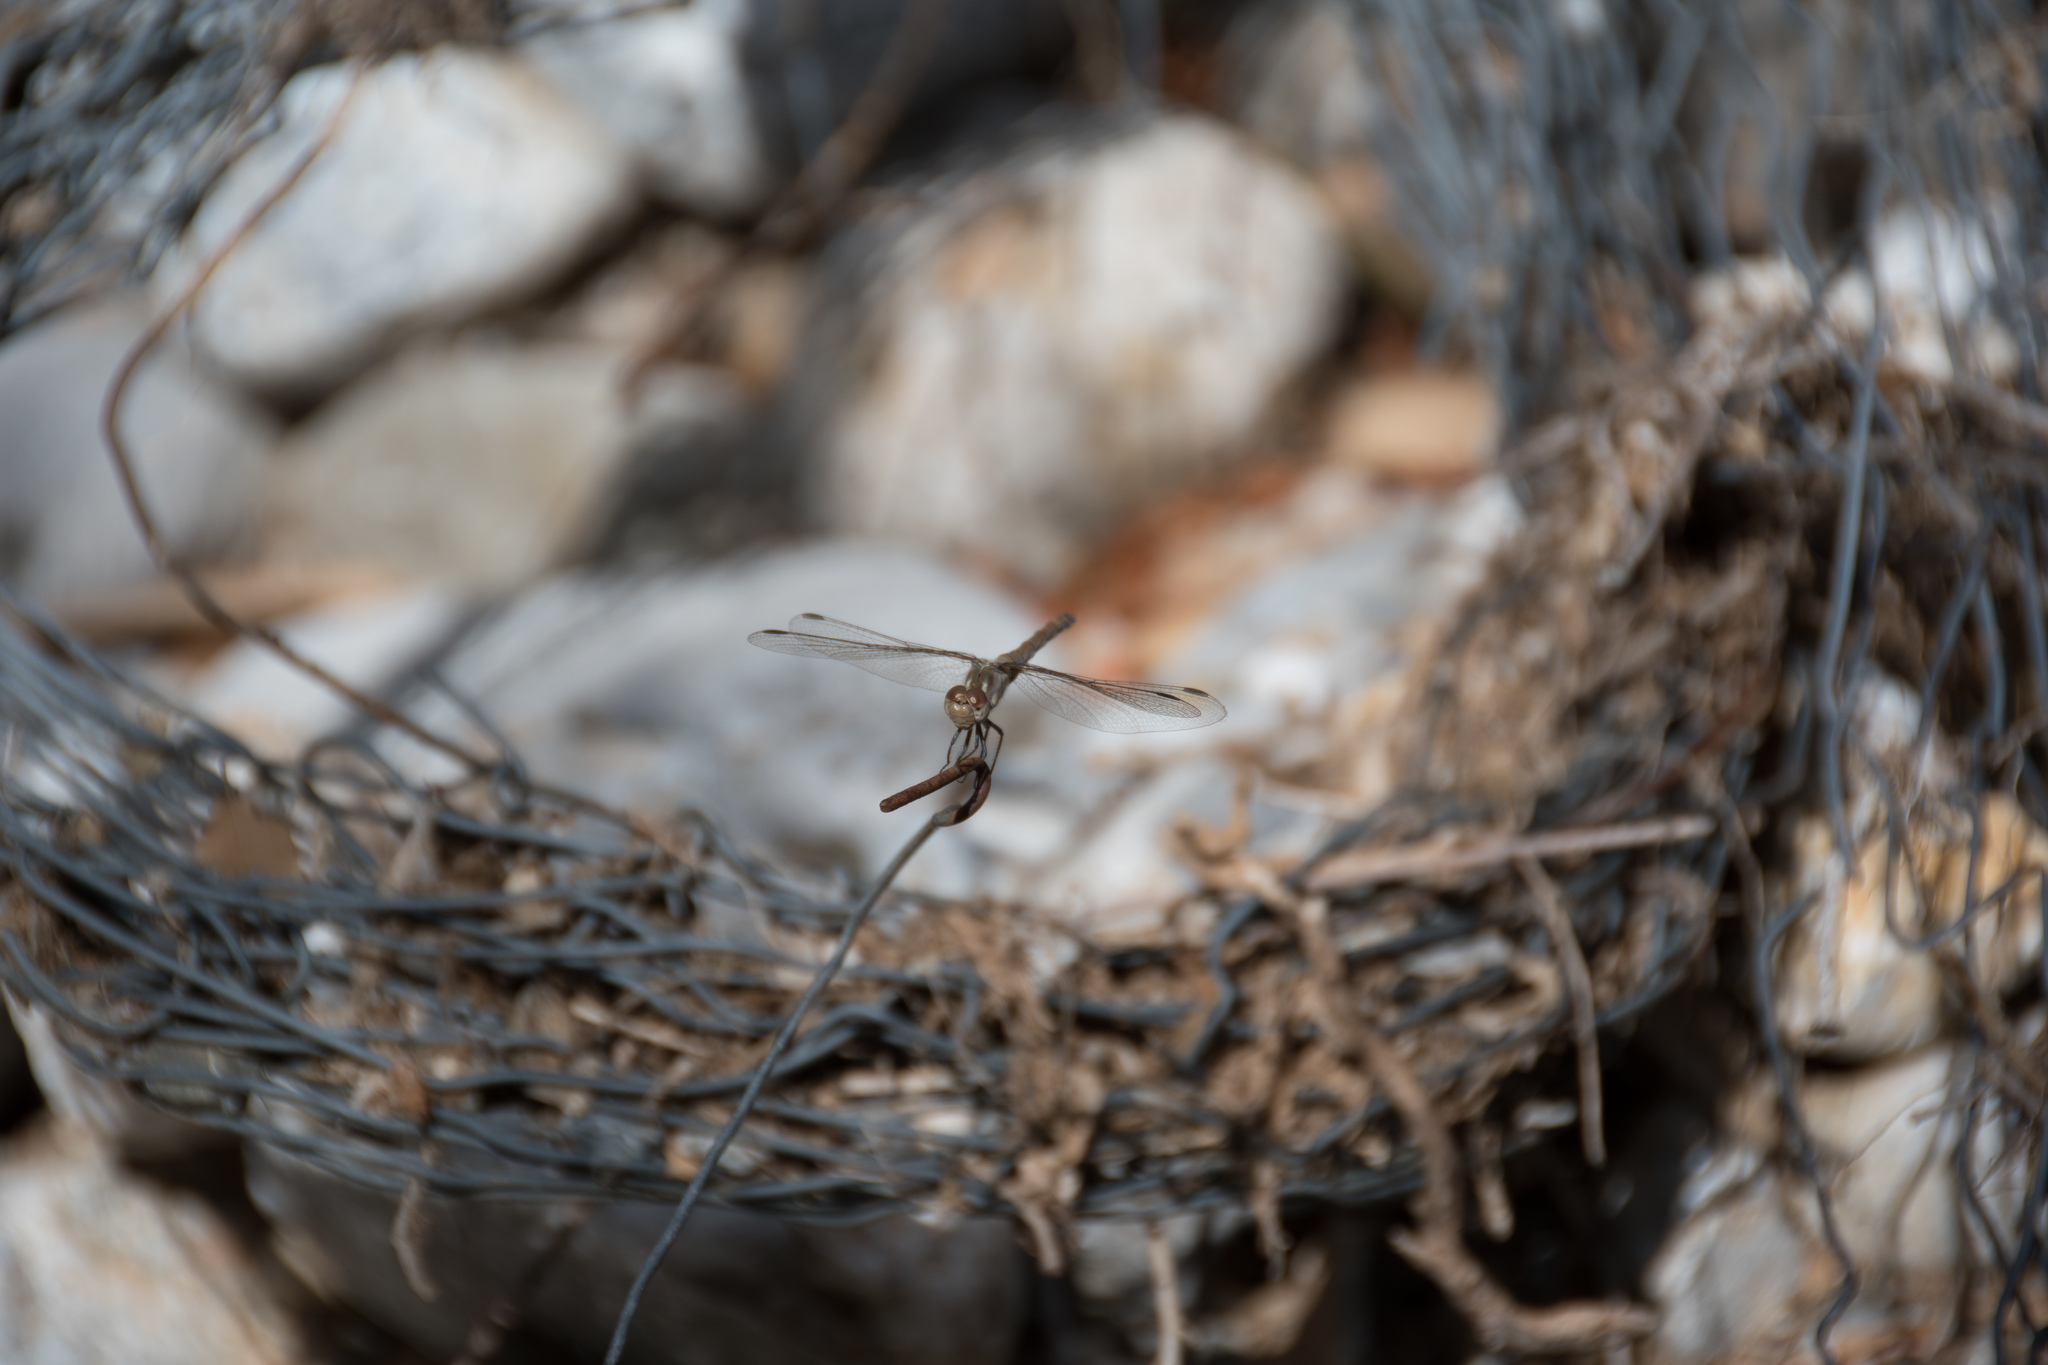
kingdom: Animalia
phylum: Arthropoda
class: Insecta
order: Odonata
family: Libellulidae
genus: Sympetrum
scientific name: Sympetrum striolatum
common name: Common darter
